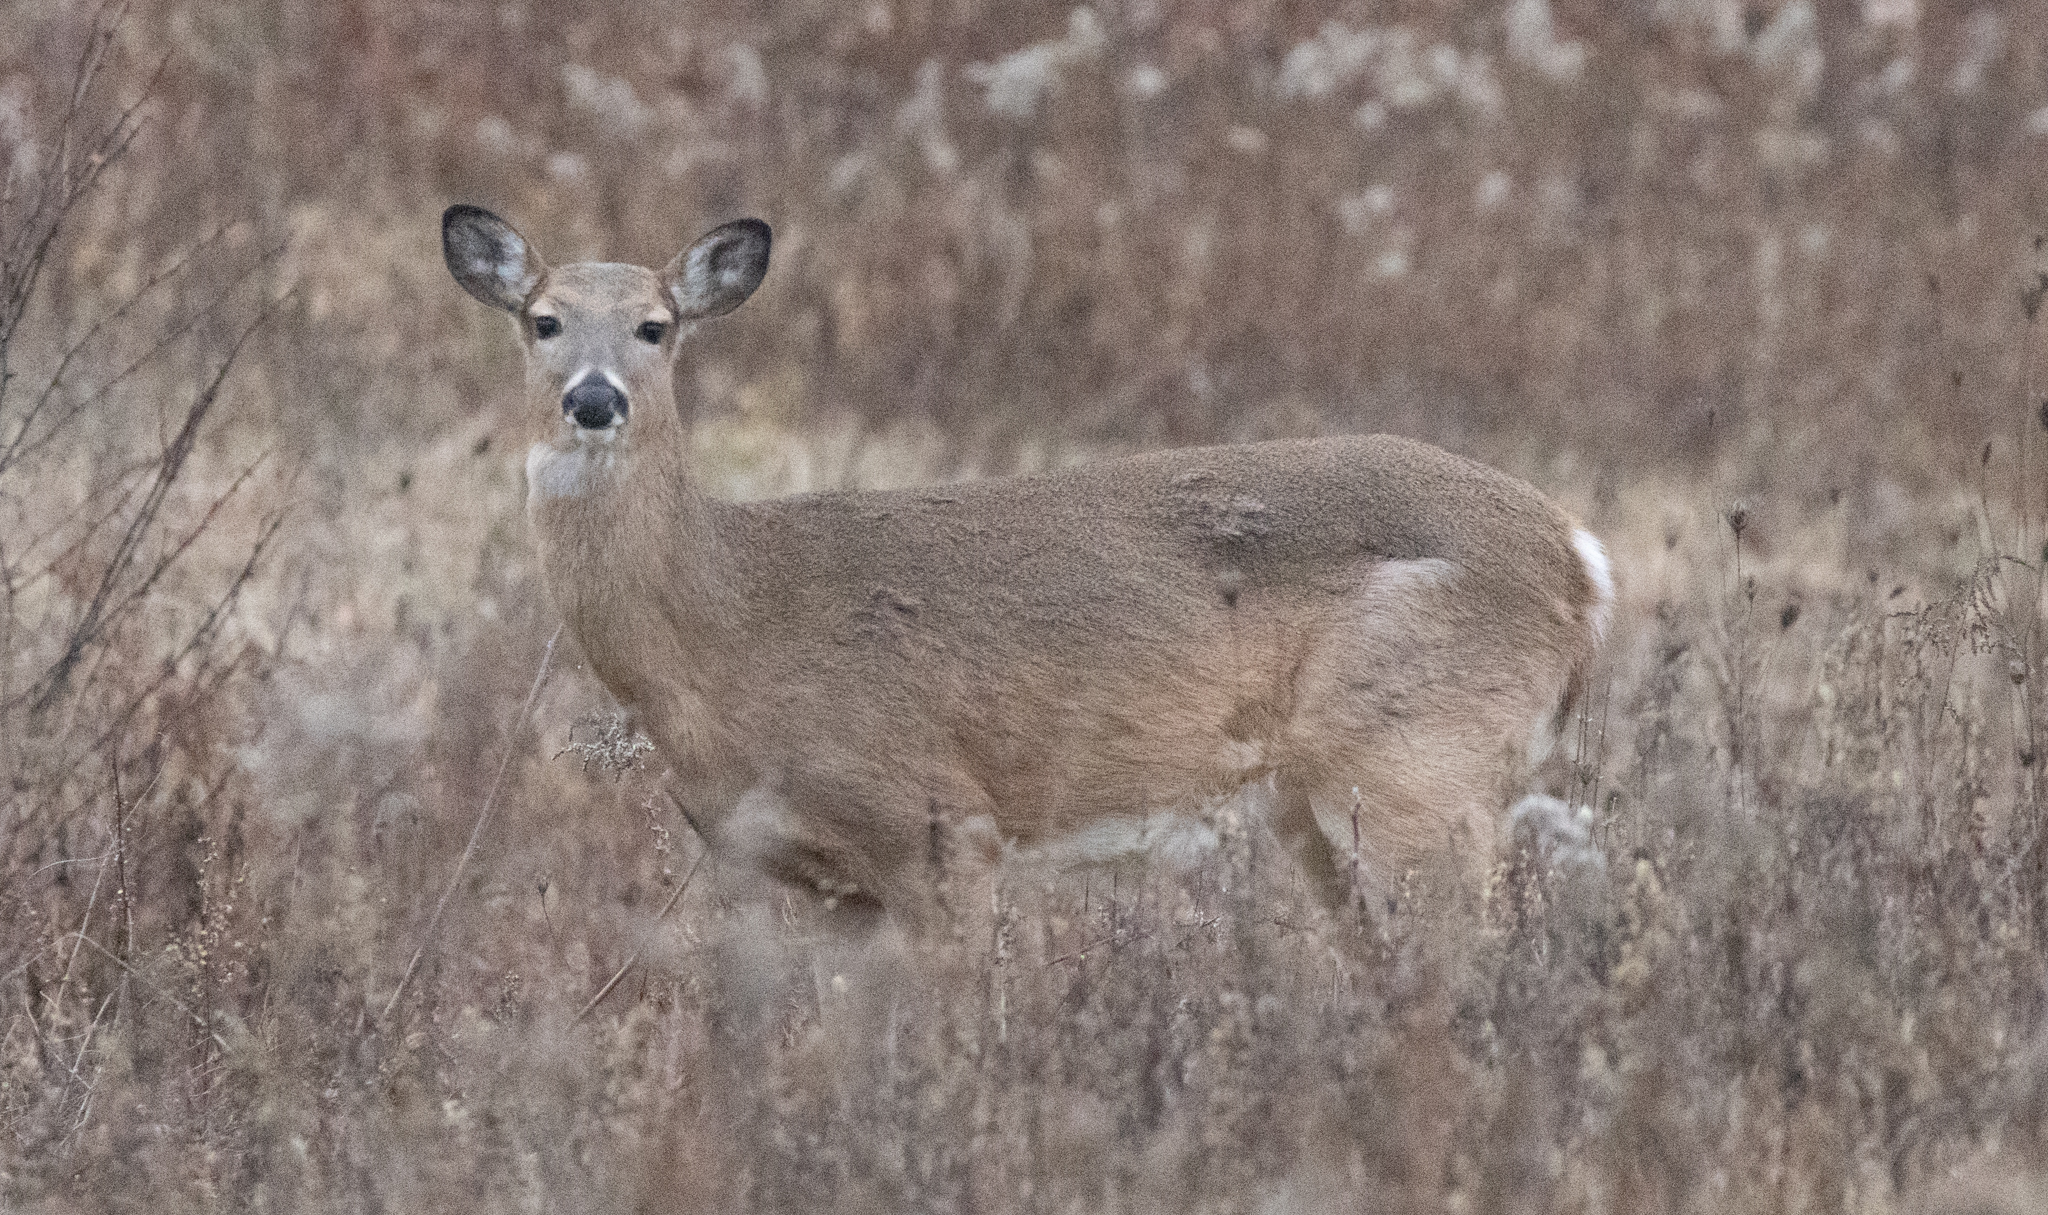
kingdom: Animalia
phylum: Chordata
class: Mammalia
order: Artiodactyla
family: Cervidae
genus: Odocoileus
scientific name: Odocoileus virginianus
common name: White-tailed deer
